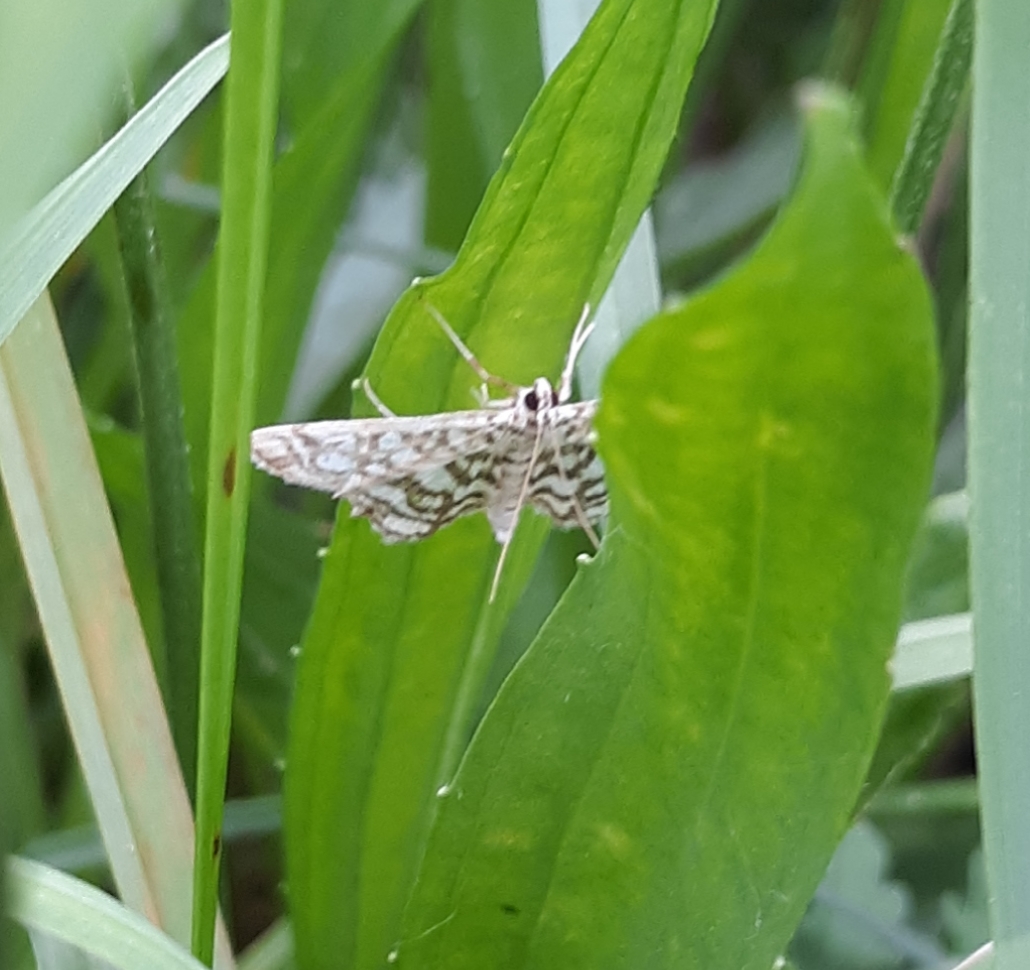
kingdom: Animalia
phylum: Arthropoda
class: Insecta
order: Lepidoptera
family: Crambidae
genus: Lygropia
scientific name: Lygropia rivulalis
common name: Bog lygropia moth
